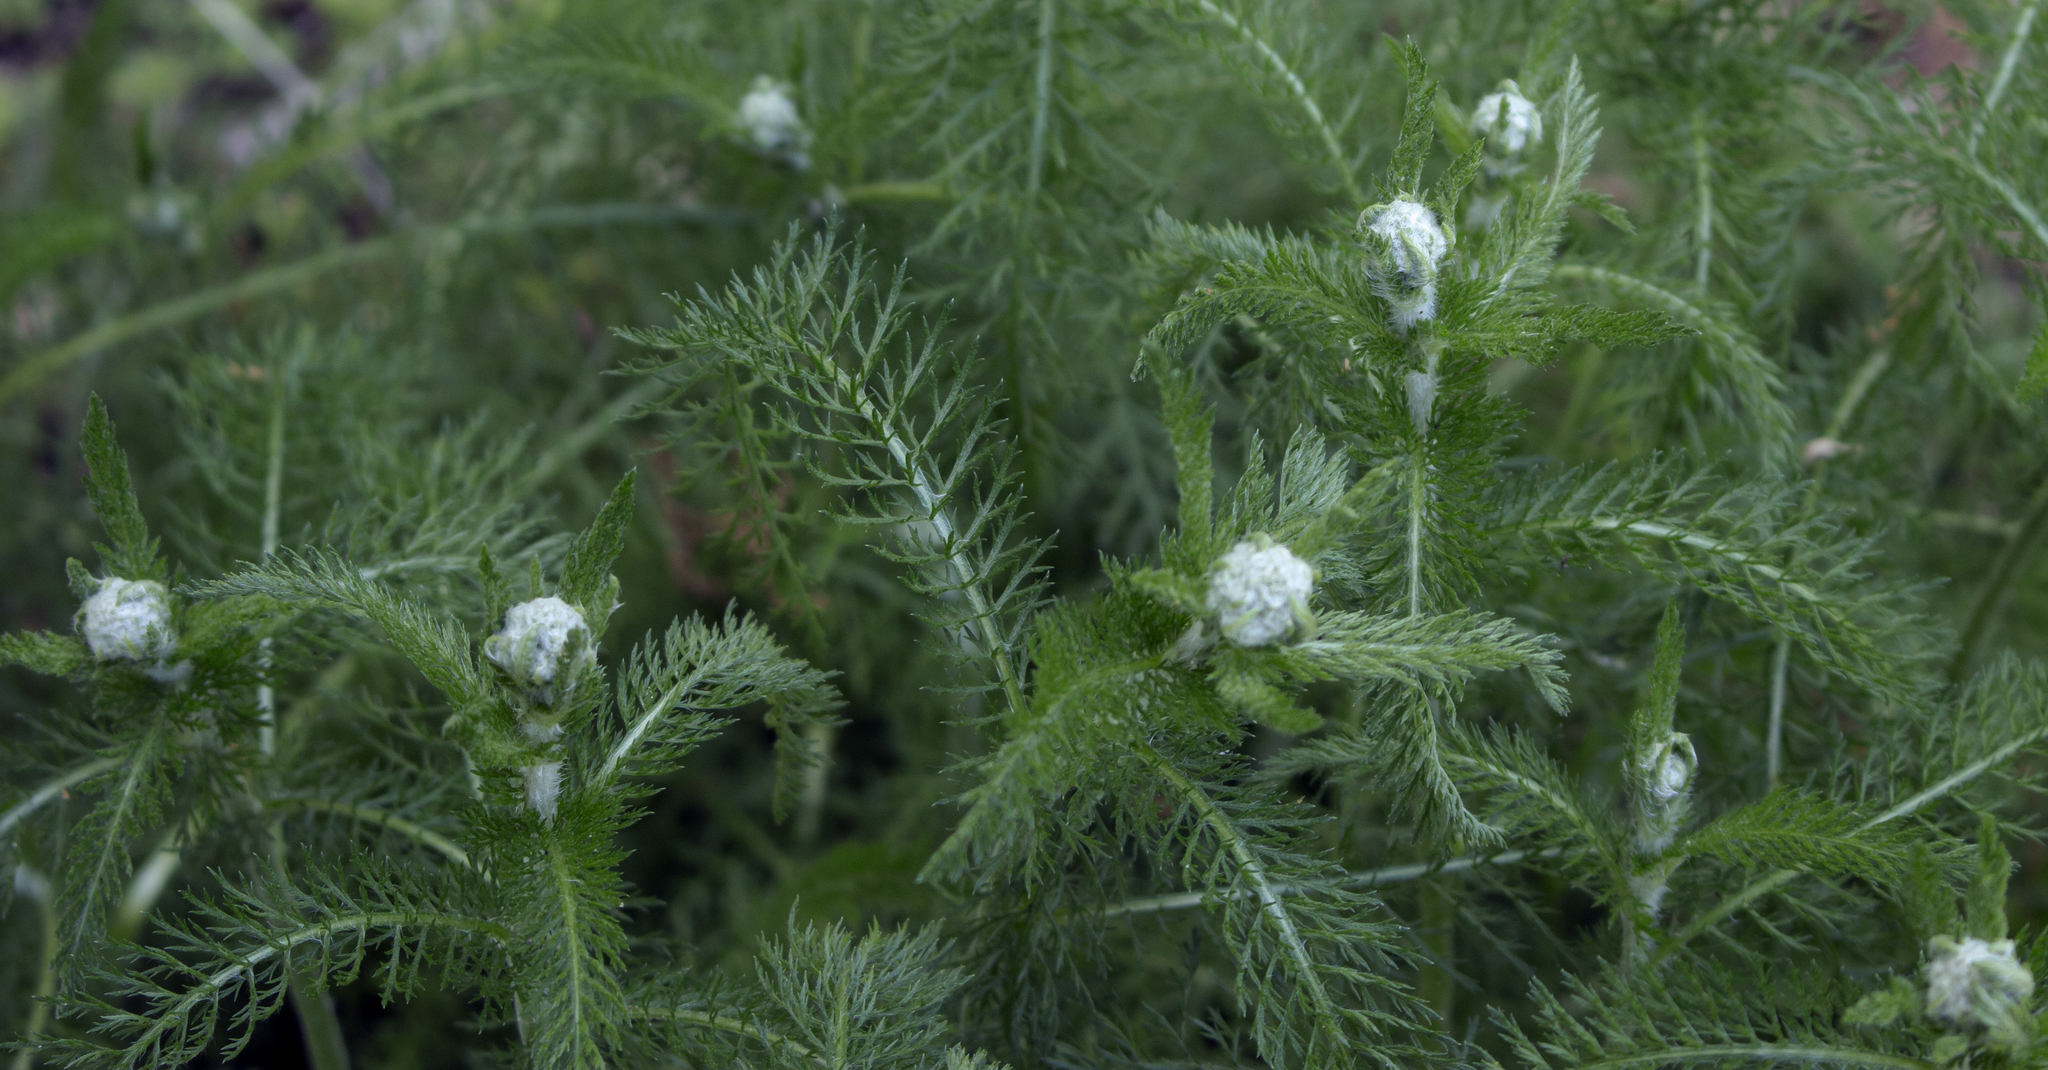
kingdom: Plantae
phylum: Tracheophyta
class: Magnoliopsida
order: Asterales
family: Asteraceae
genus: Achillea
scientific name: Achillea millefolium
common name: Yarrow
